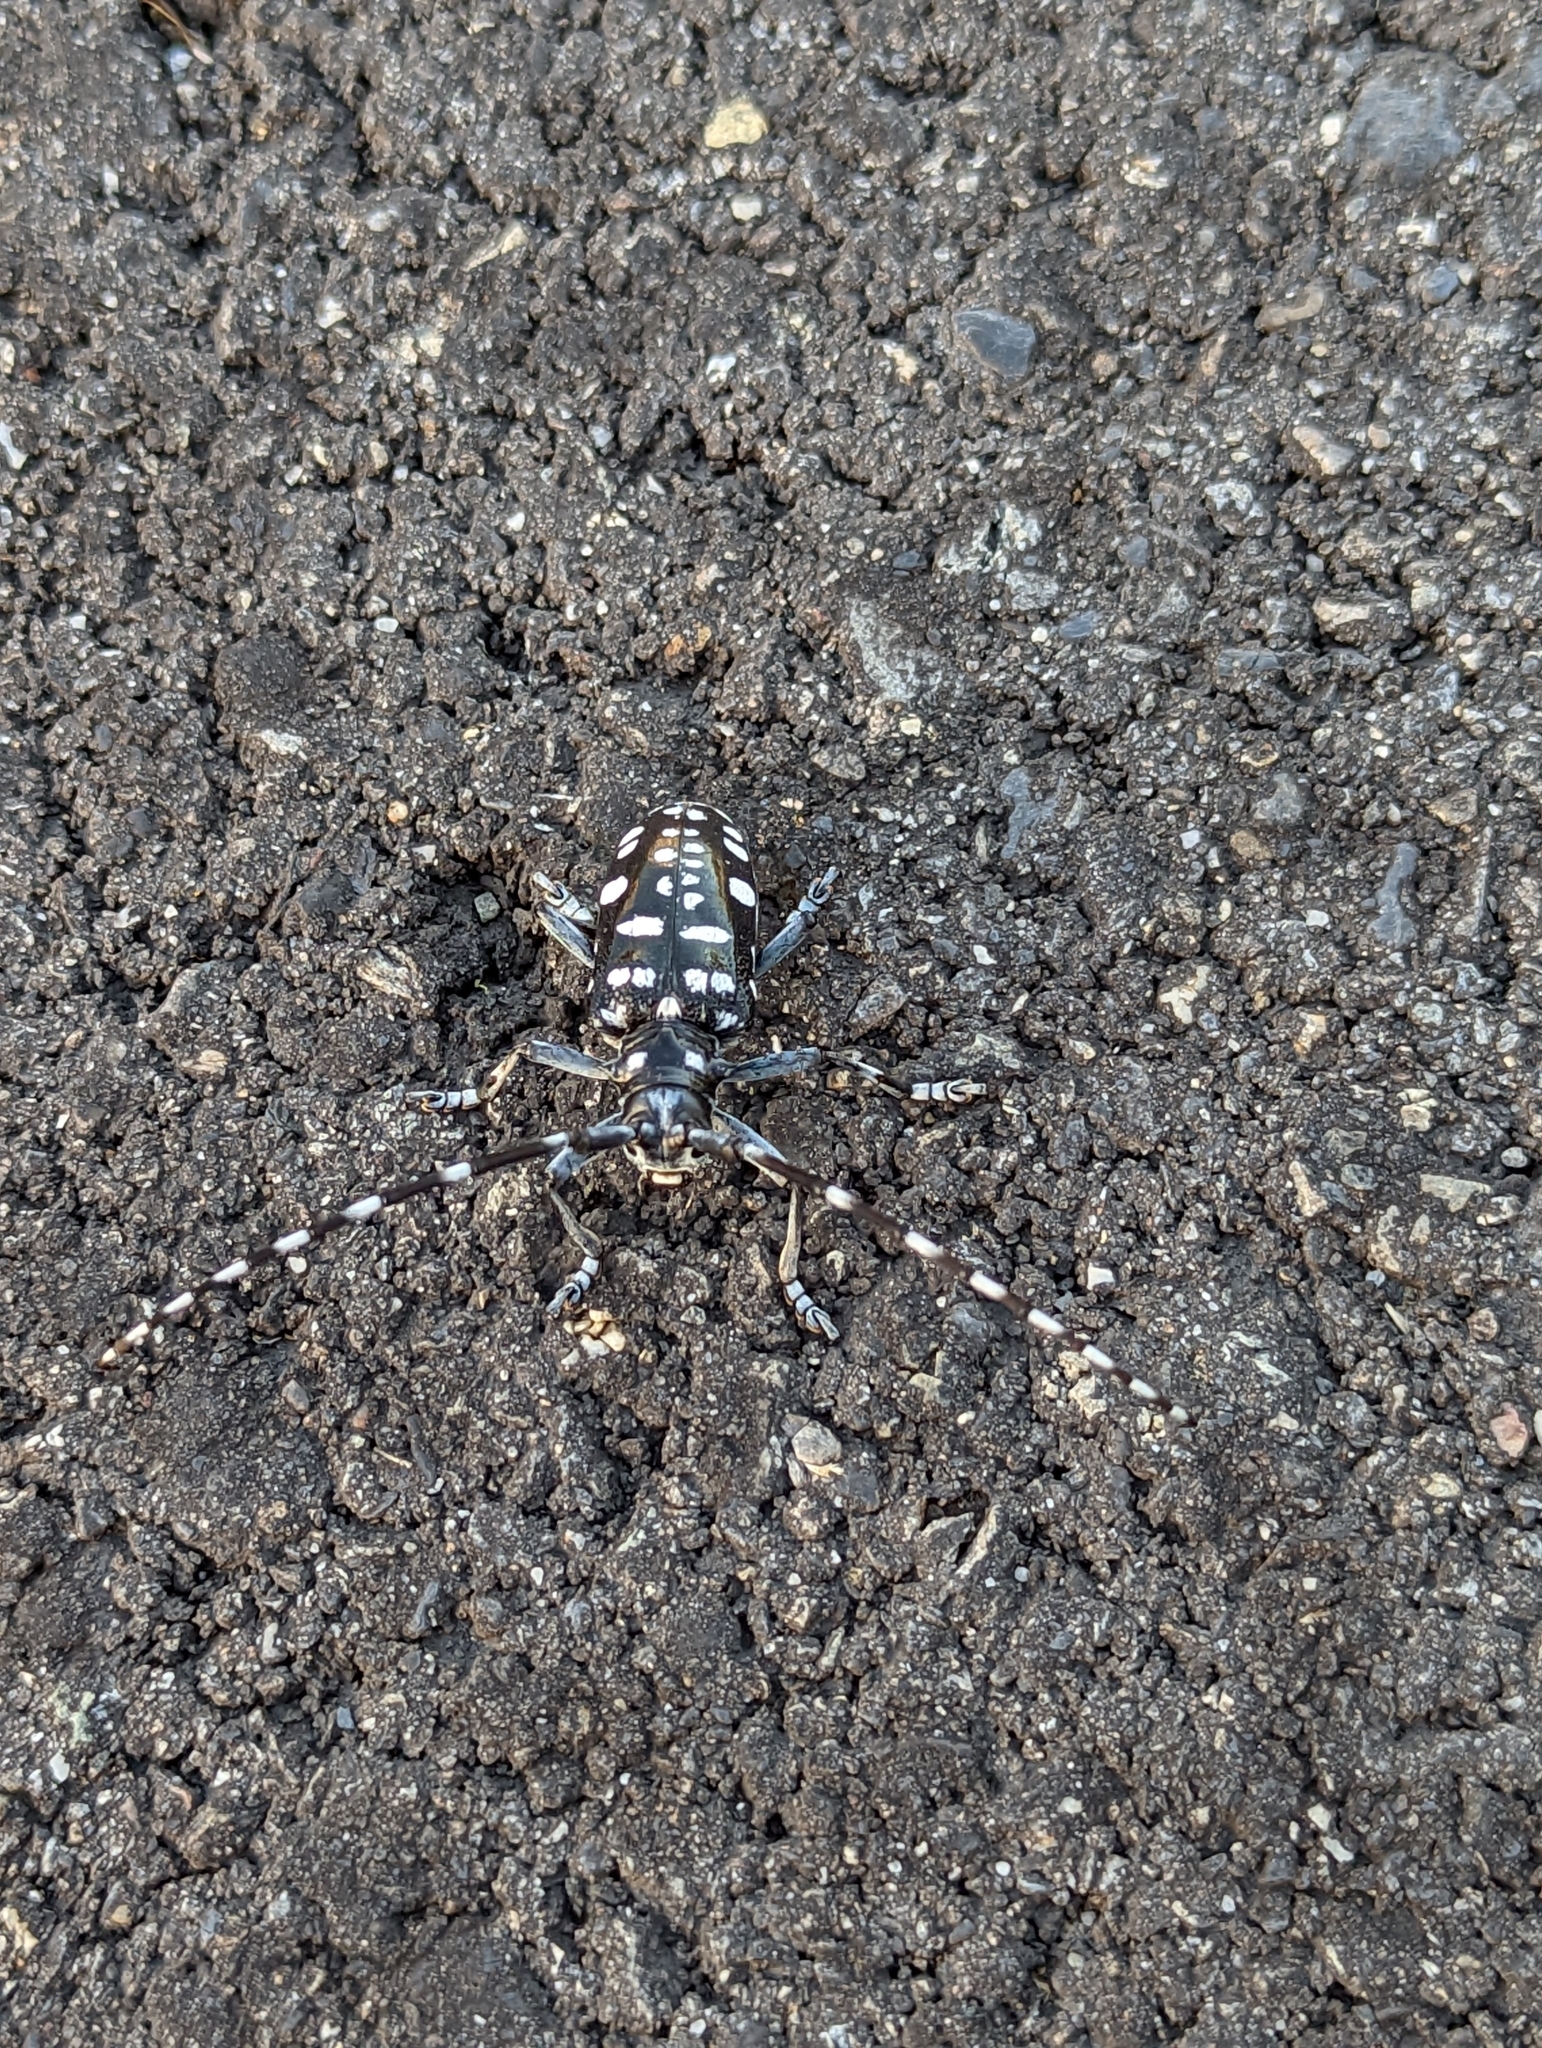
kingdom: Animalia
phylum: Arthropoda
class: Insecta
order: Coleoptera
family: Cerambycidae
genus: Anoplophora
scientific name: Anoplophora chinensis
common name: Citrus longhorned beetle
